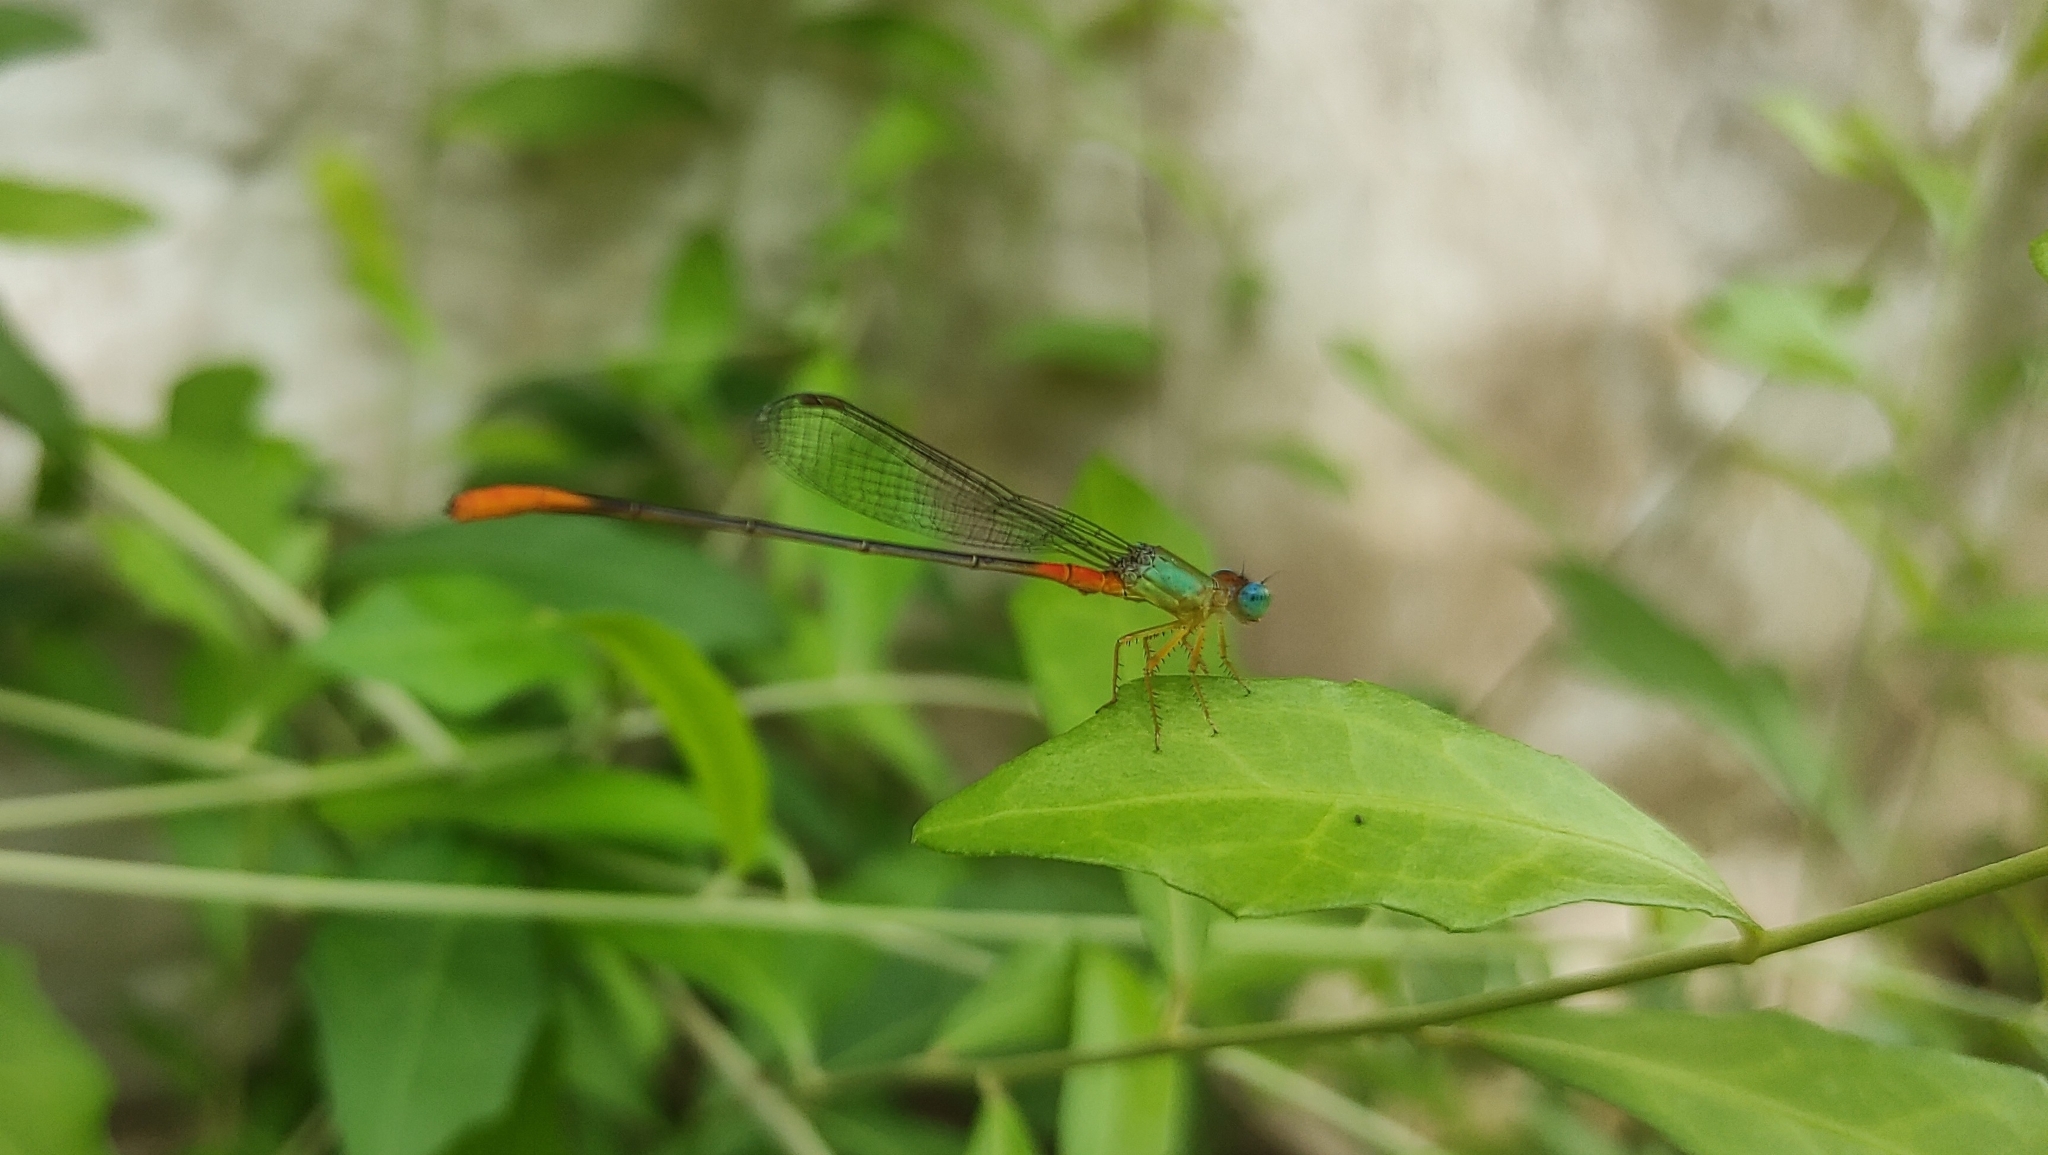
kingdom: Animalia
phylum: Arthropoda
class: Insecta
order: Odonata
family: Coenagrionidae
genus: Ceriagrion
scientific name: Ceriagrion cerinorubellum
